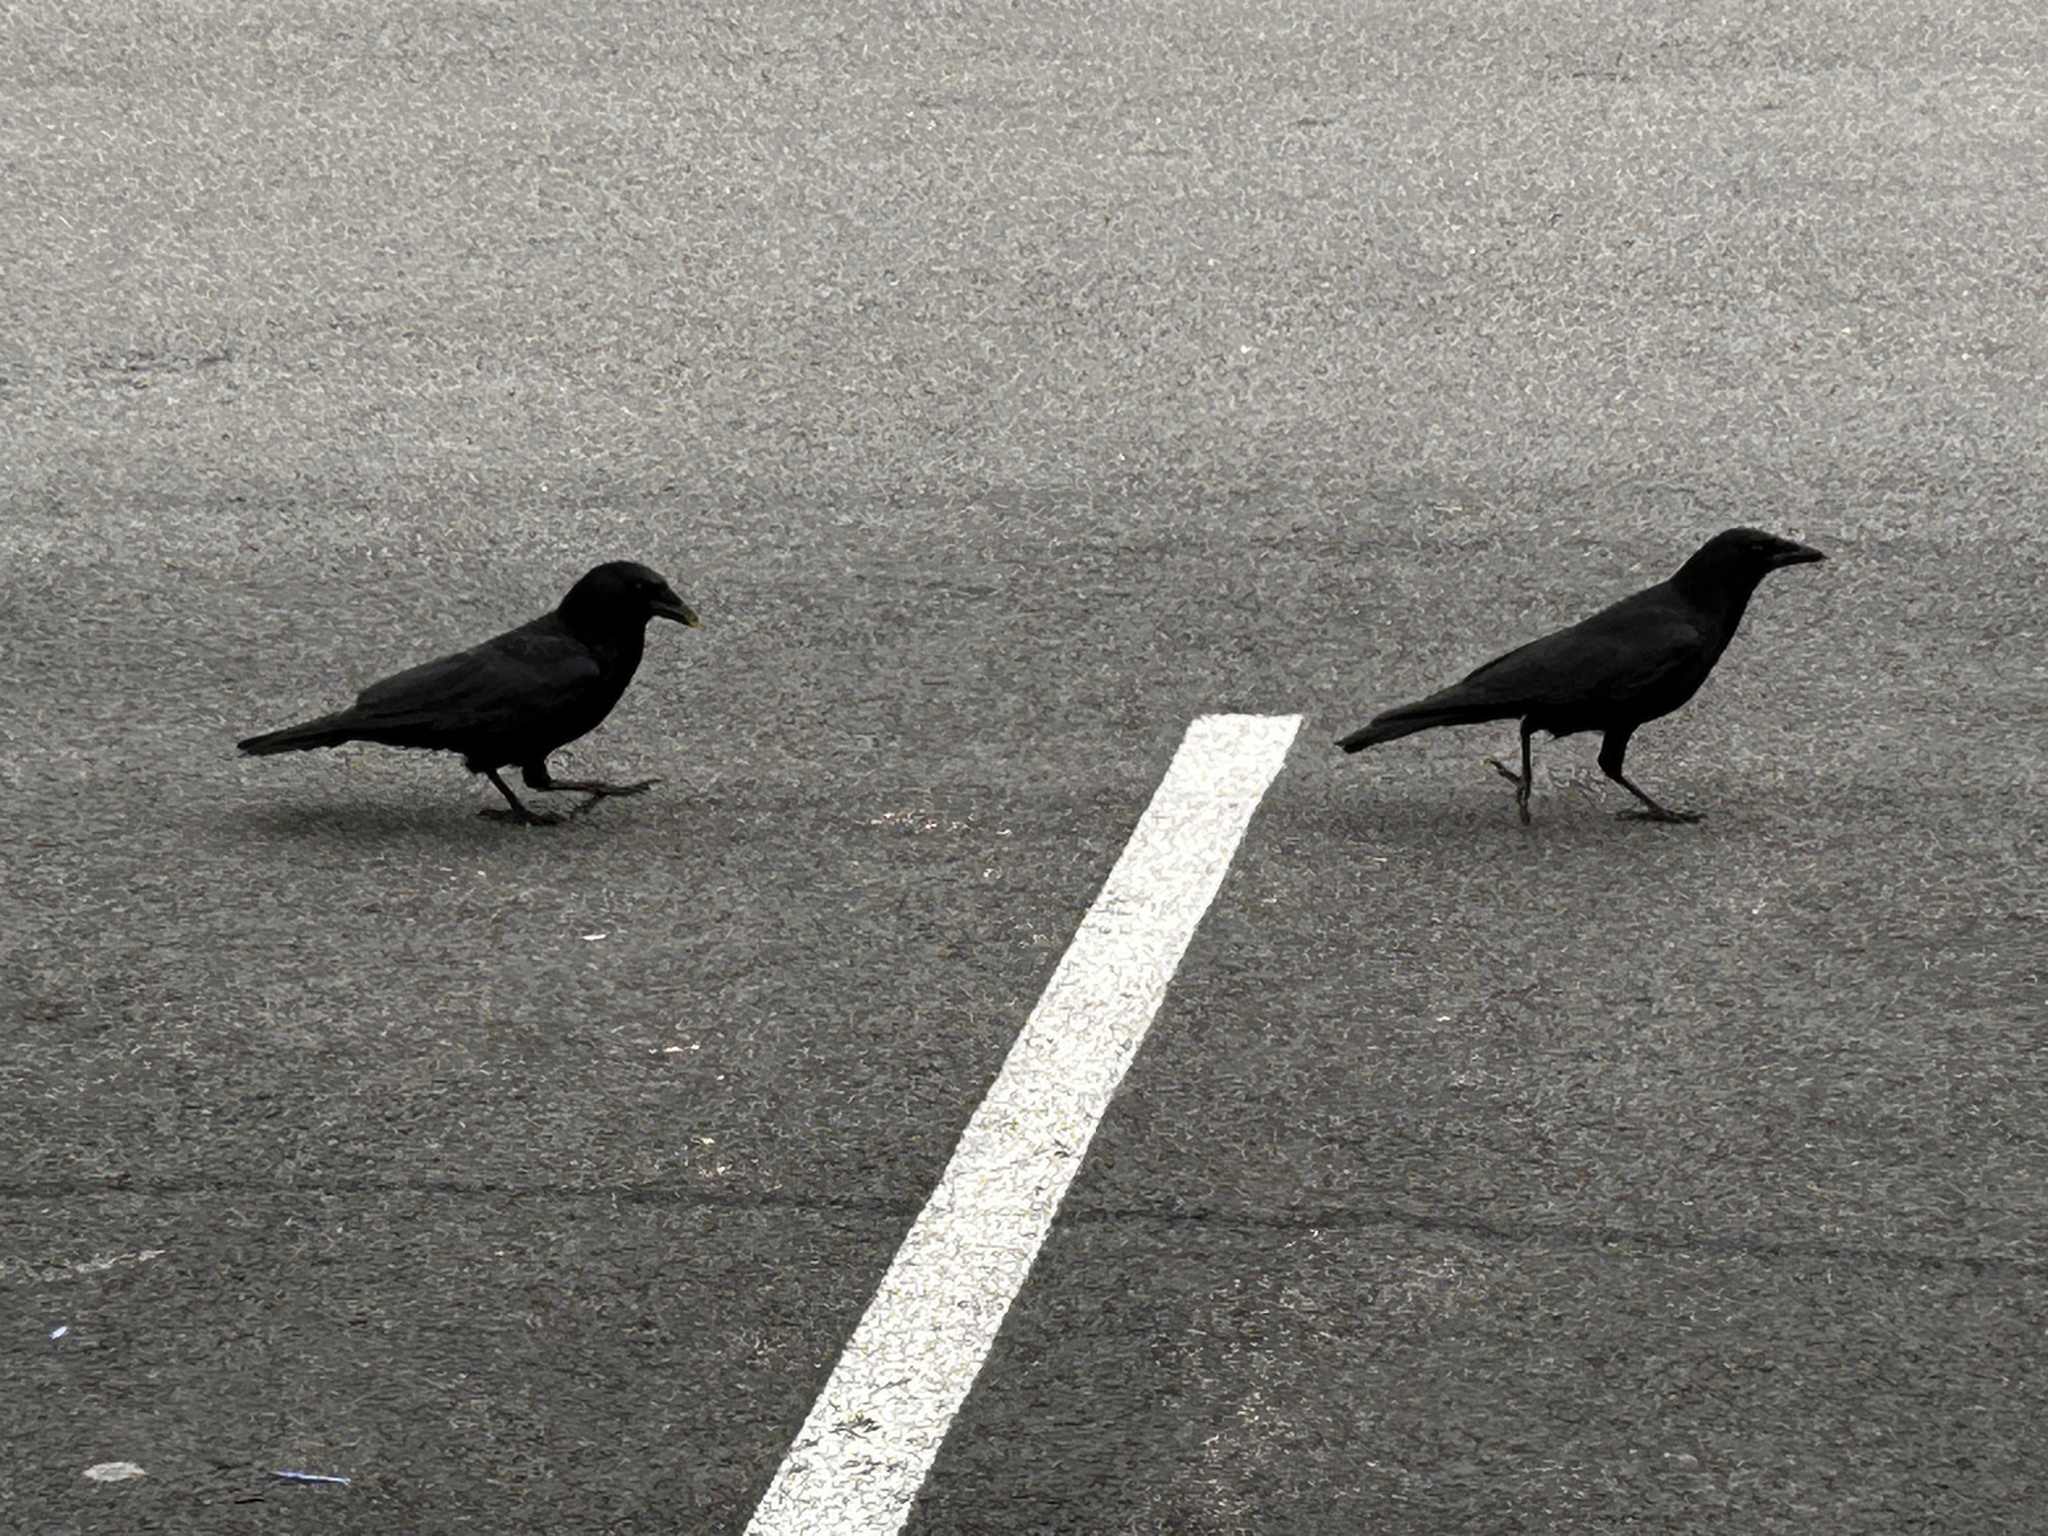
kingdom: Animalia
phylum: Chordata
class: Aves
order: Passeriformes
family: Corvidae
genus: Corvus
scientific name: Corvus brachyrhynchos
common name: American crow
